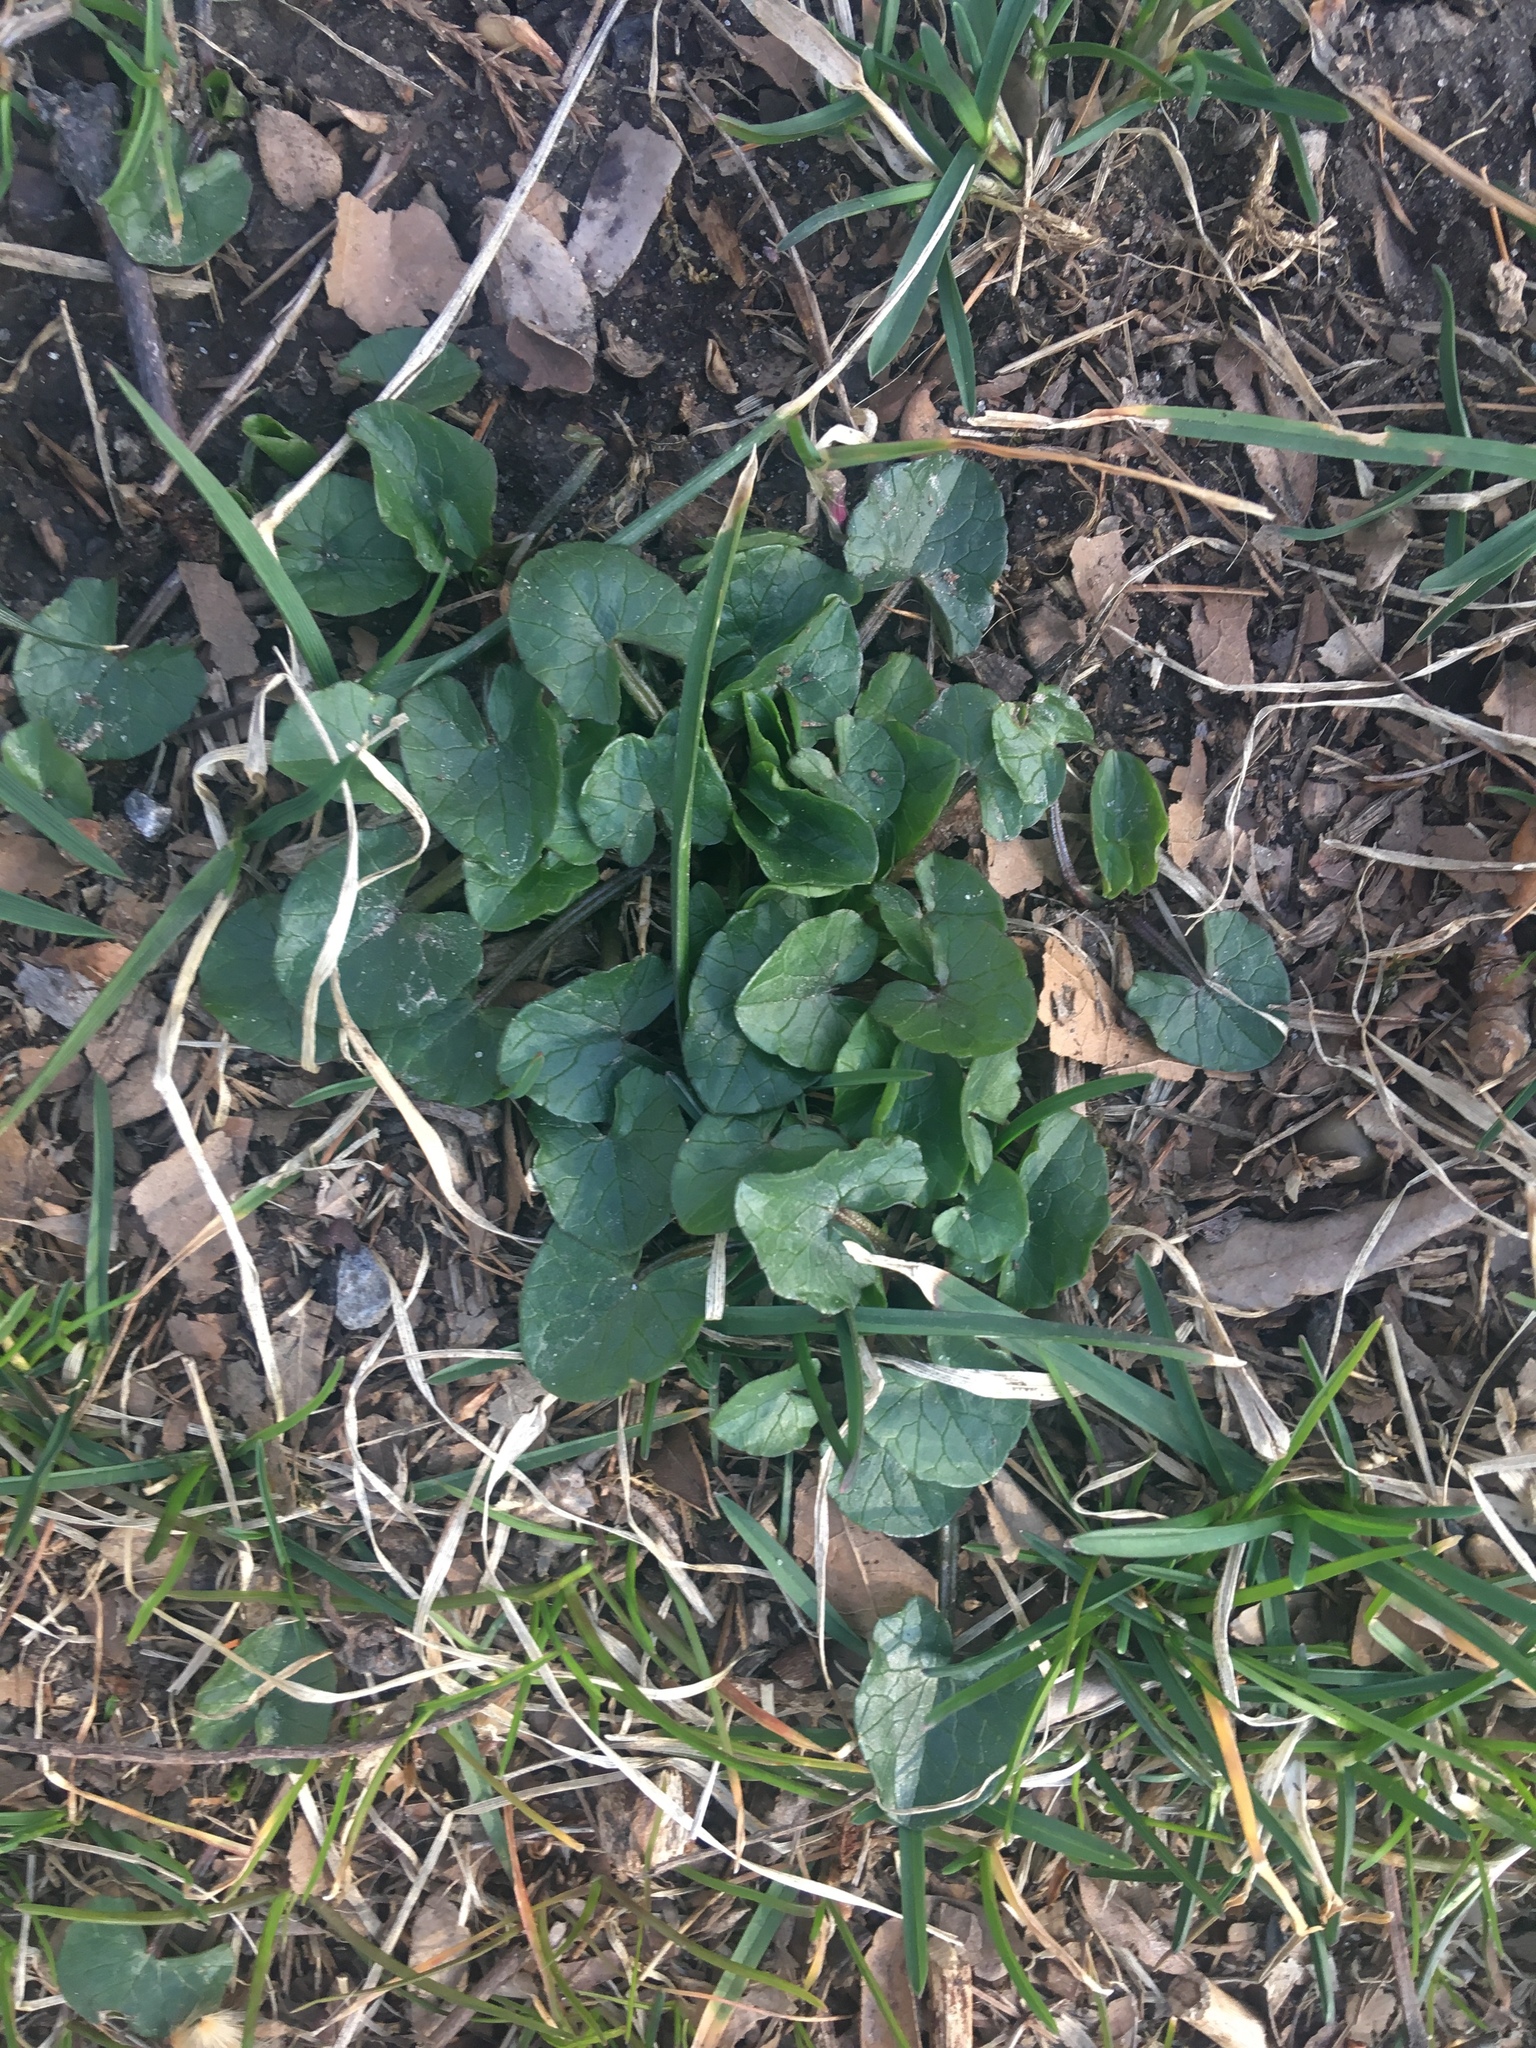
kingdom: Plantae
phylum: Tracheophyta
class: Magnoliopsida
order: Ranunculales
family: Ranunculaceae
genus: Ficaria
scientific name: Ficaria verna
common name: Lesser celandine
